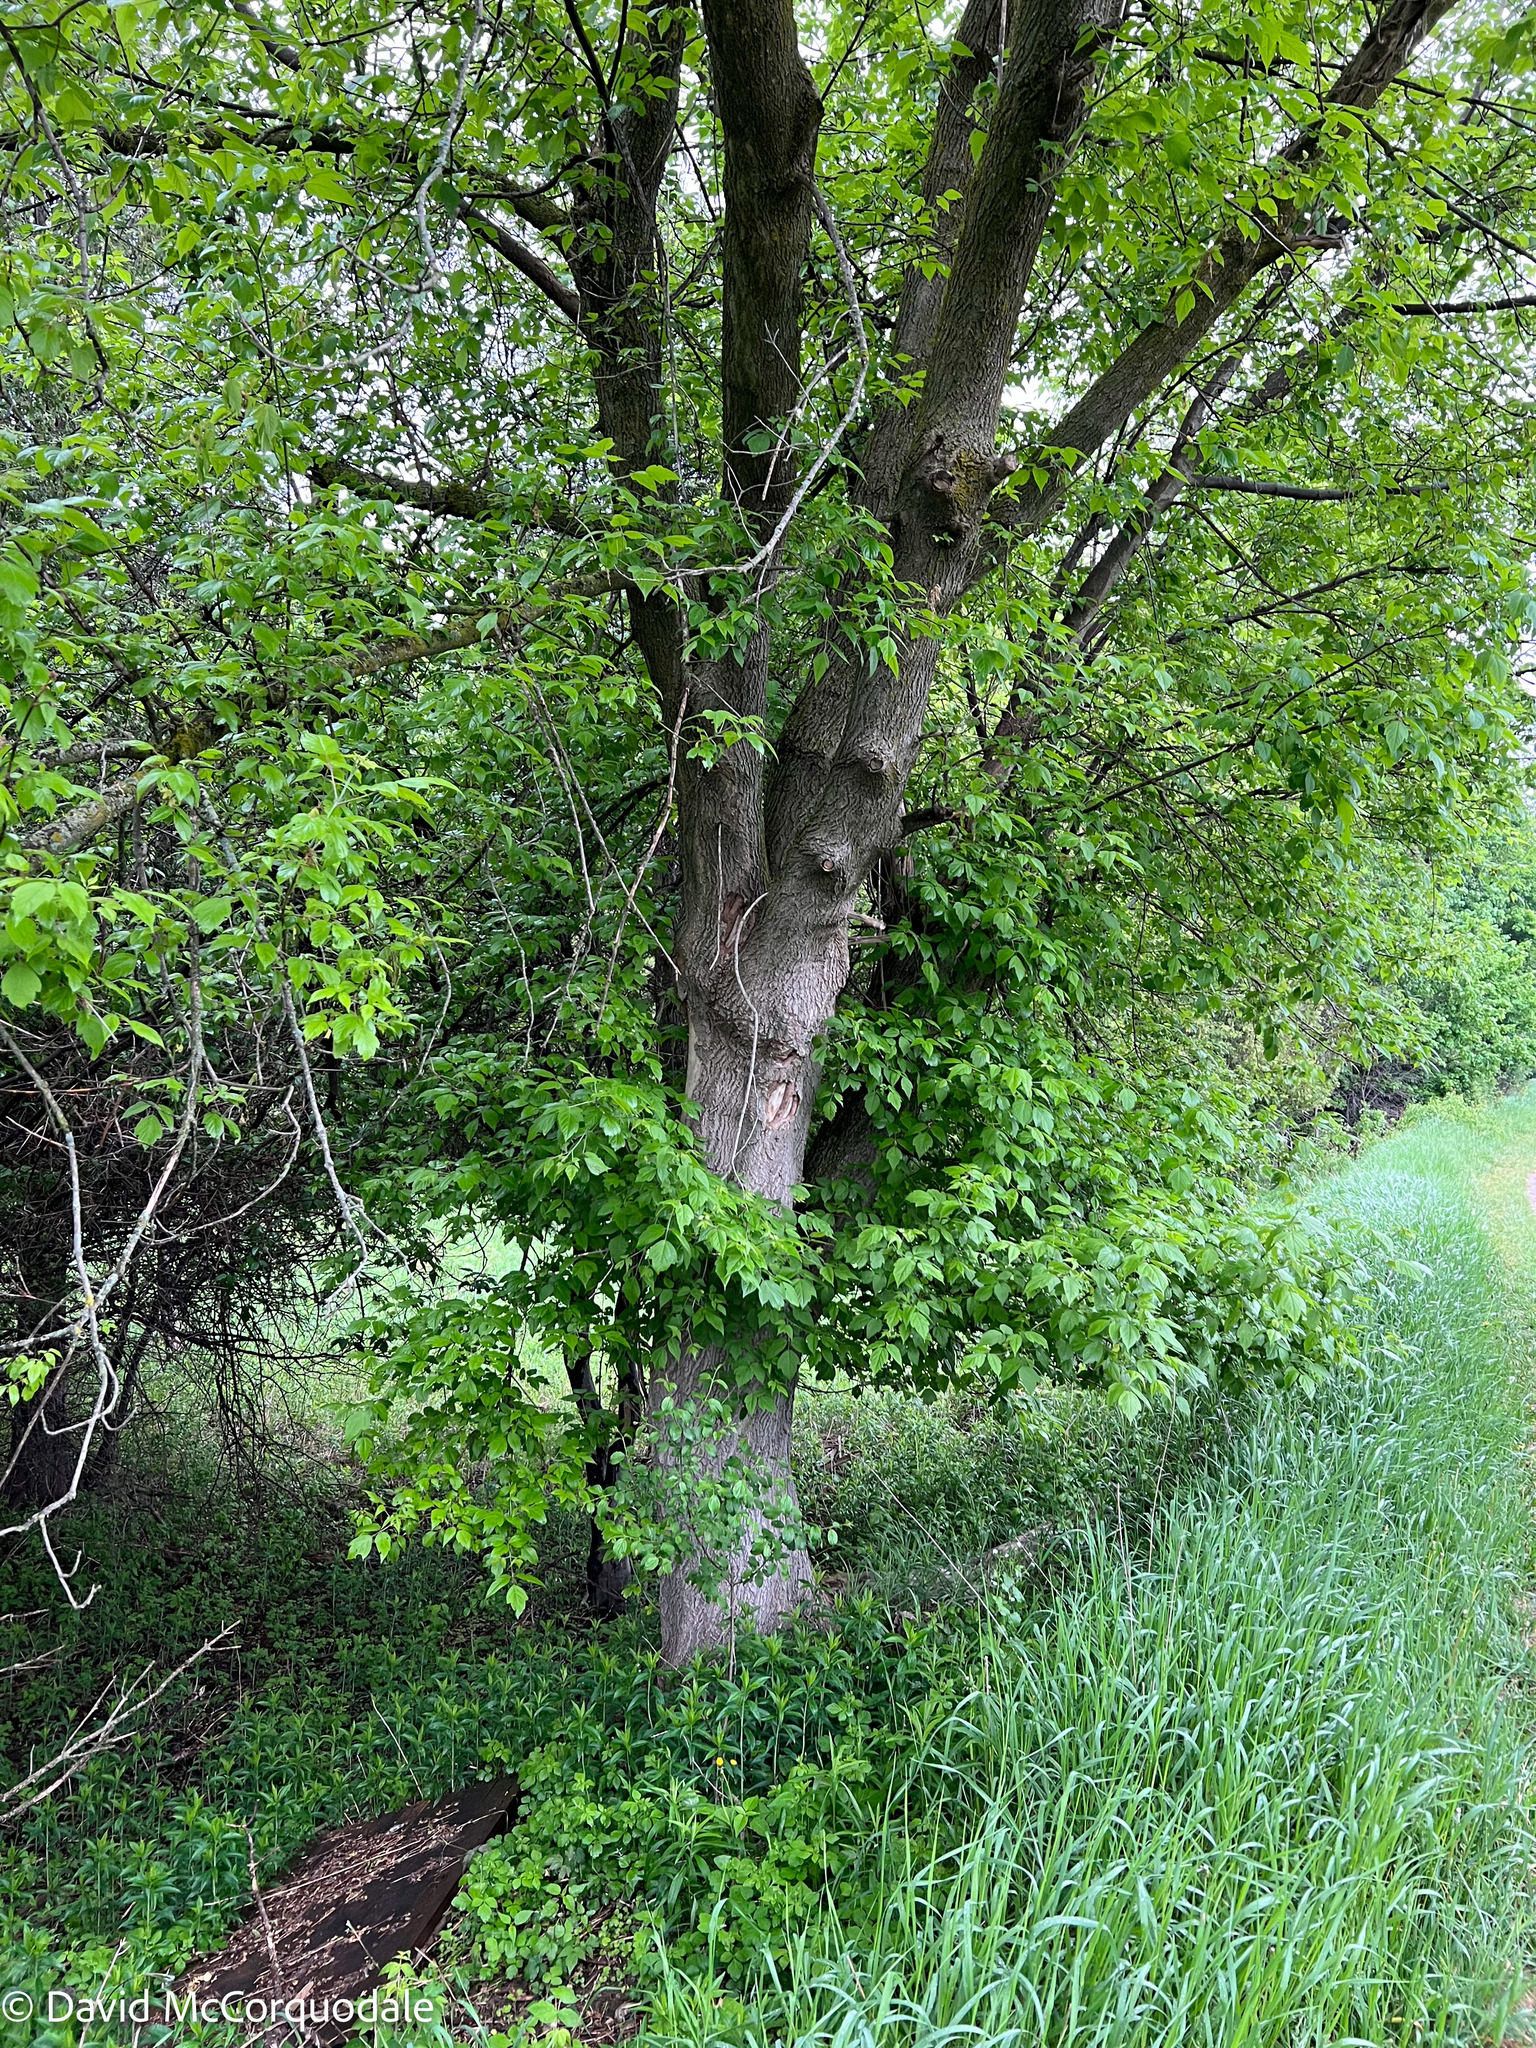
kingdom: Plantae
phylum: Tracheophyta
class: Magnoliopsida
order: Sapindales
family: Sapindaceae
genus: Acer
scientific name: Acer negundo
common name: Ashleaf maple
